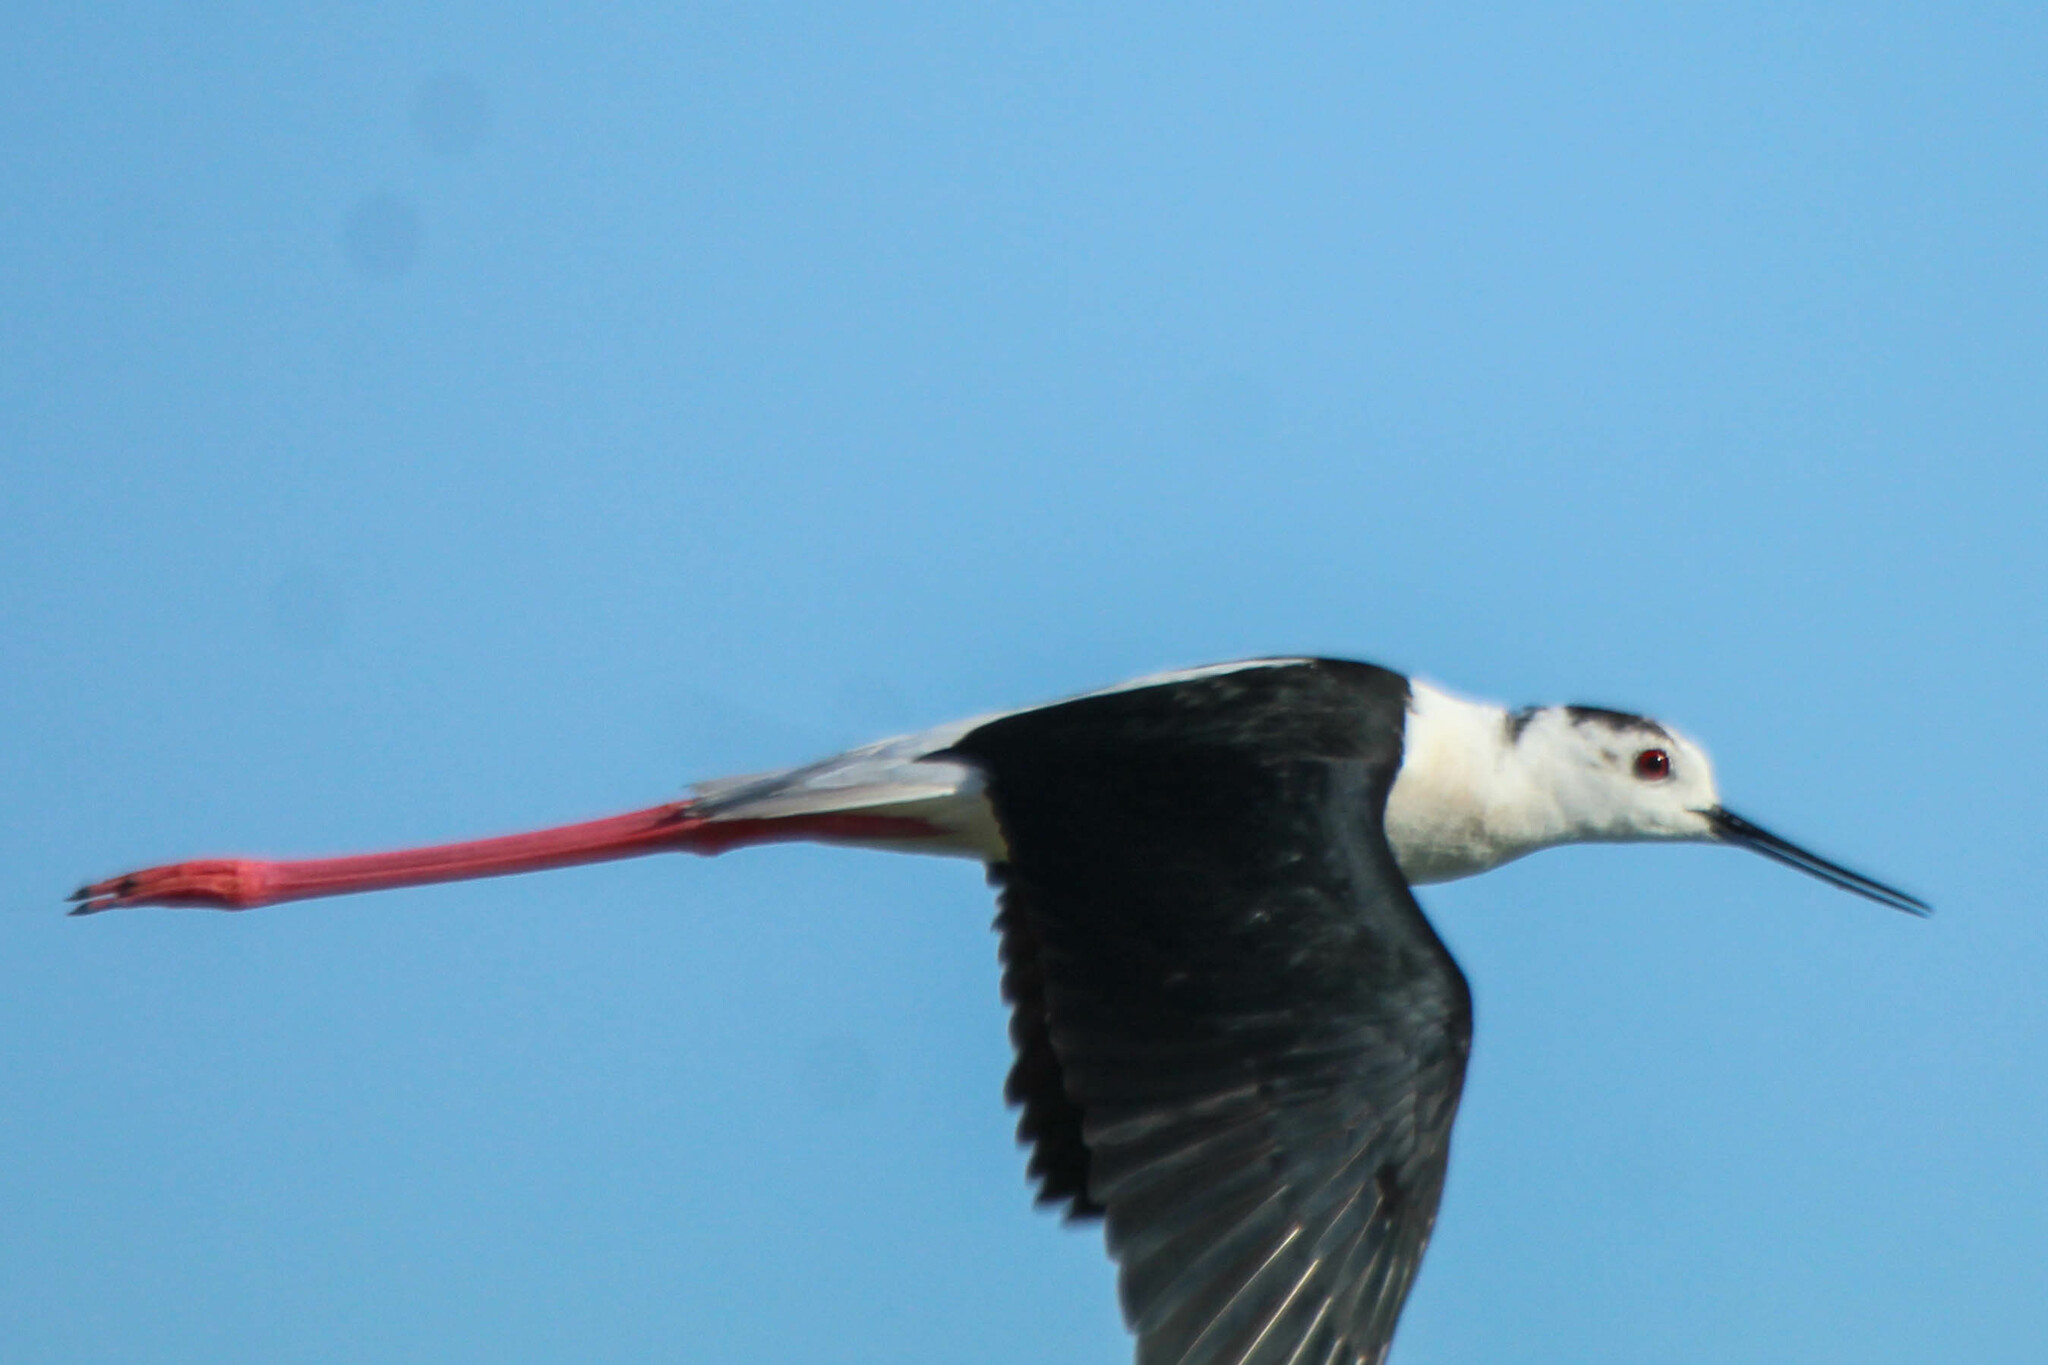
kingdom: Animalia
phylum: Chordata
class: Aves
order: Charadriiformes
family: Recurvirostridae
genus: Himantopus
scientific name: Himantopus himantopus
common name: Black-winged stilt
